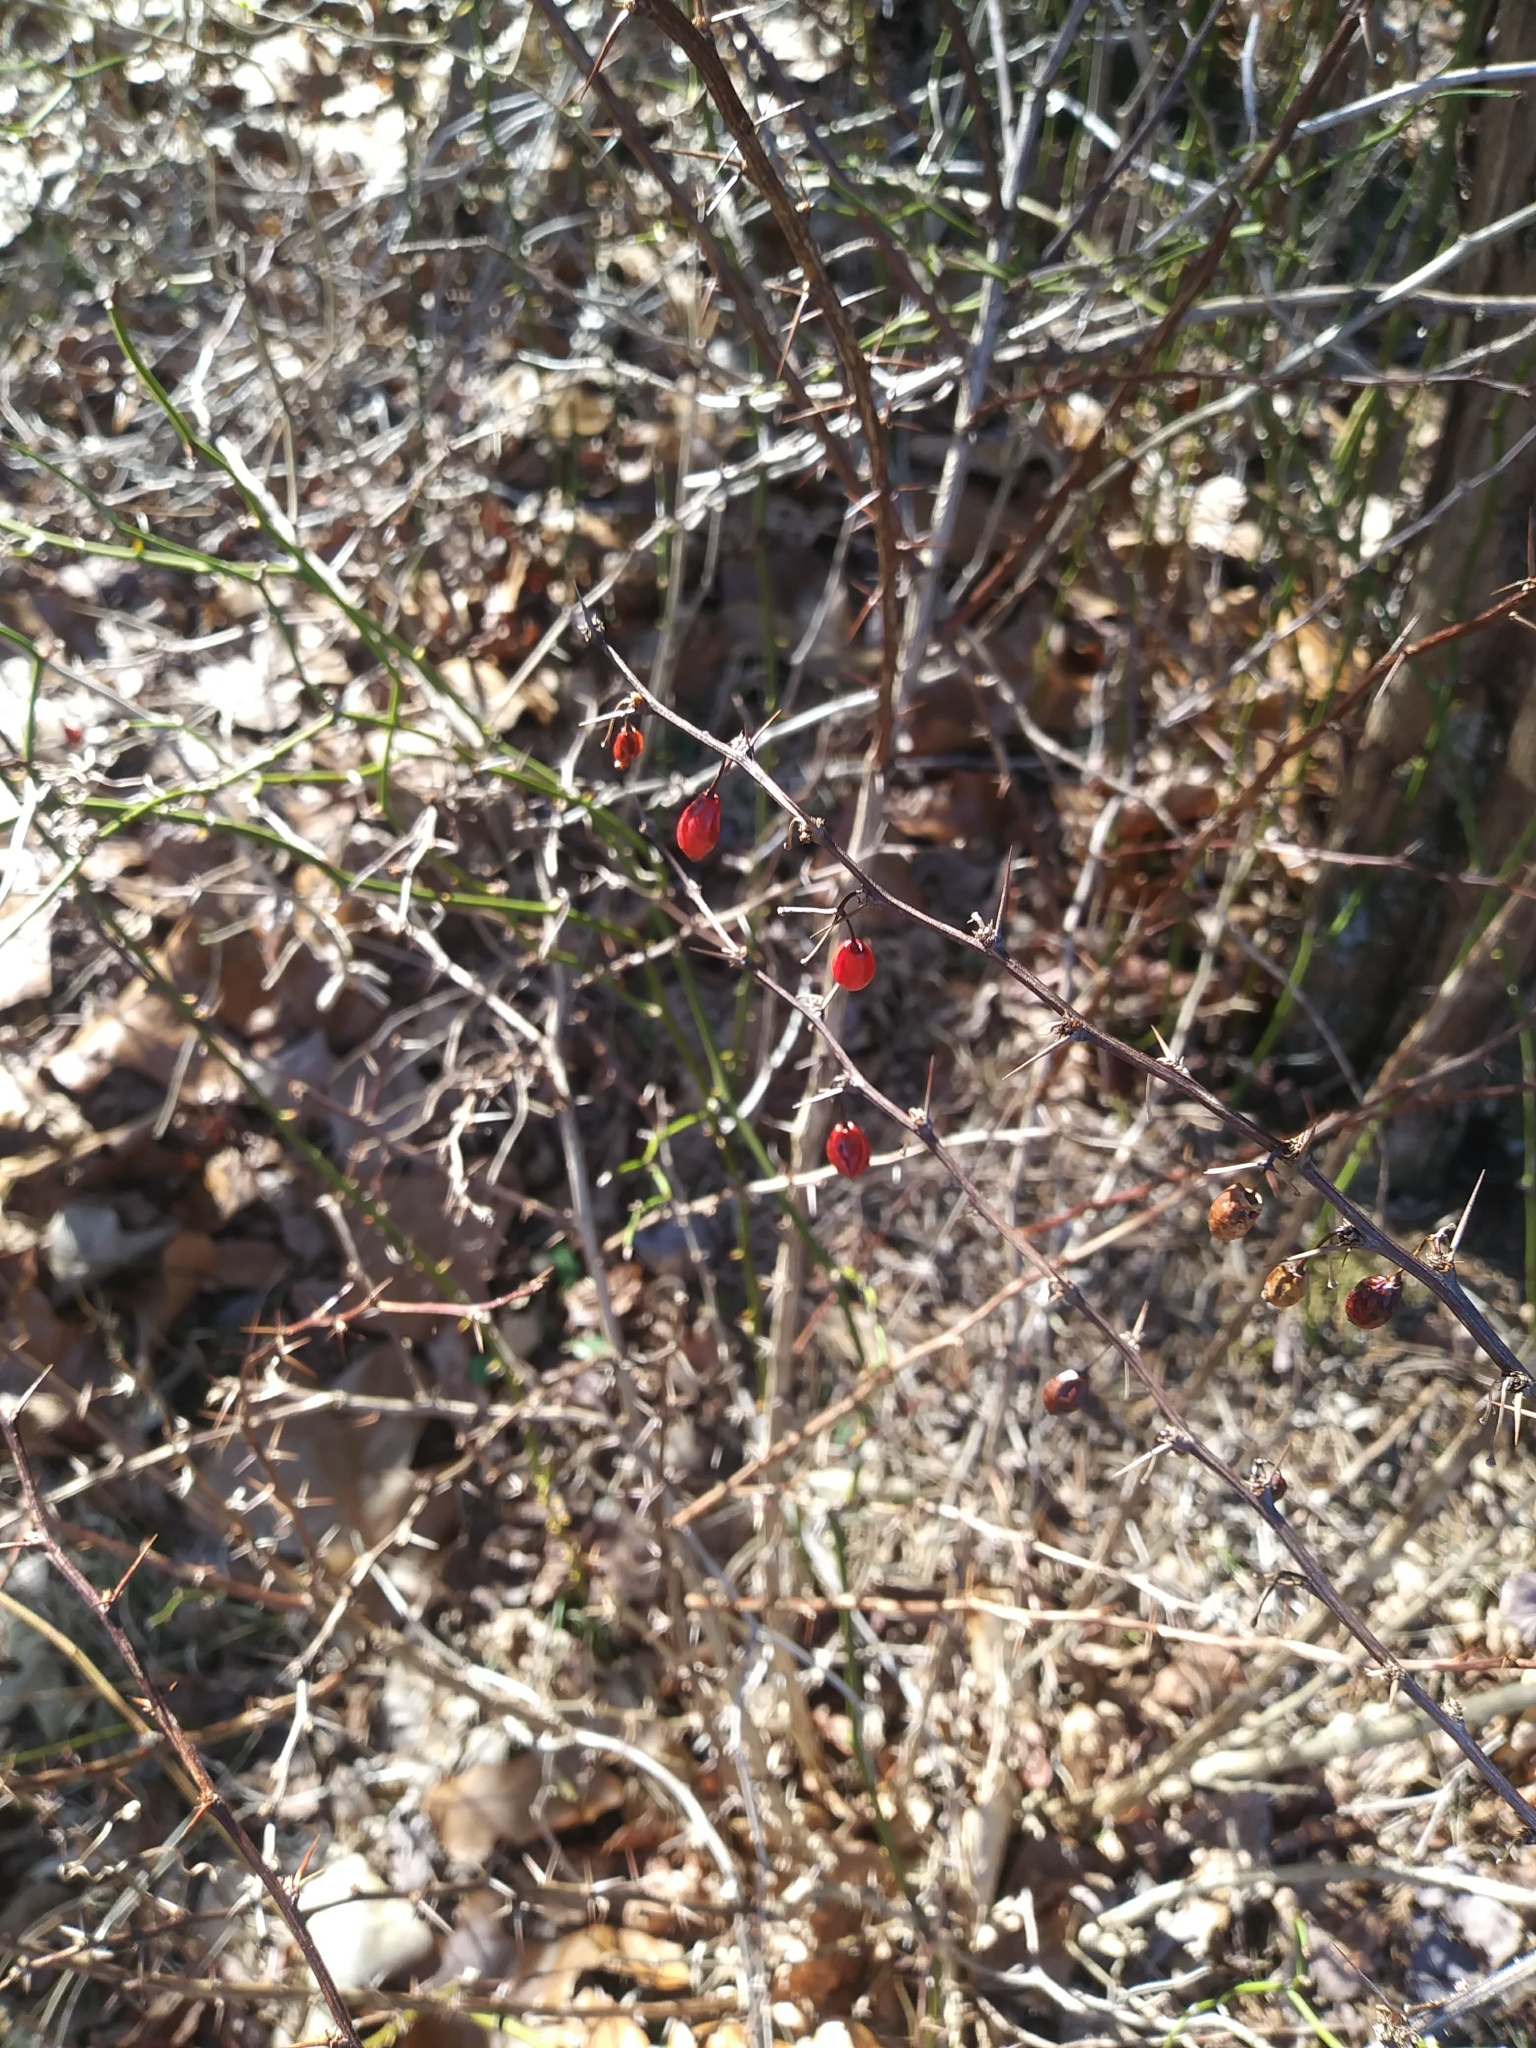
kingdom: Plantae
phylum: Tracheophyta
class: Magnoliopsida
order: Ranunculales
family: Berberidaceae
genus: Berberis
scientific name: Berberis thunbergii
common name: Japanese barberry
